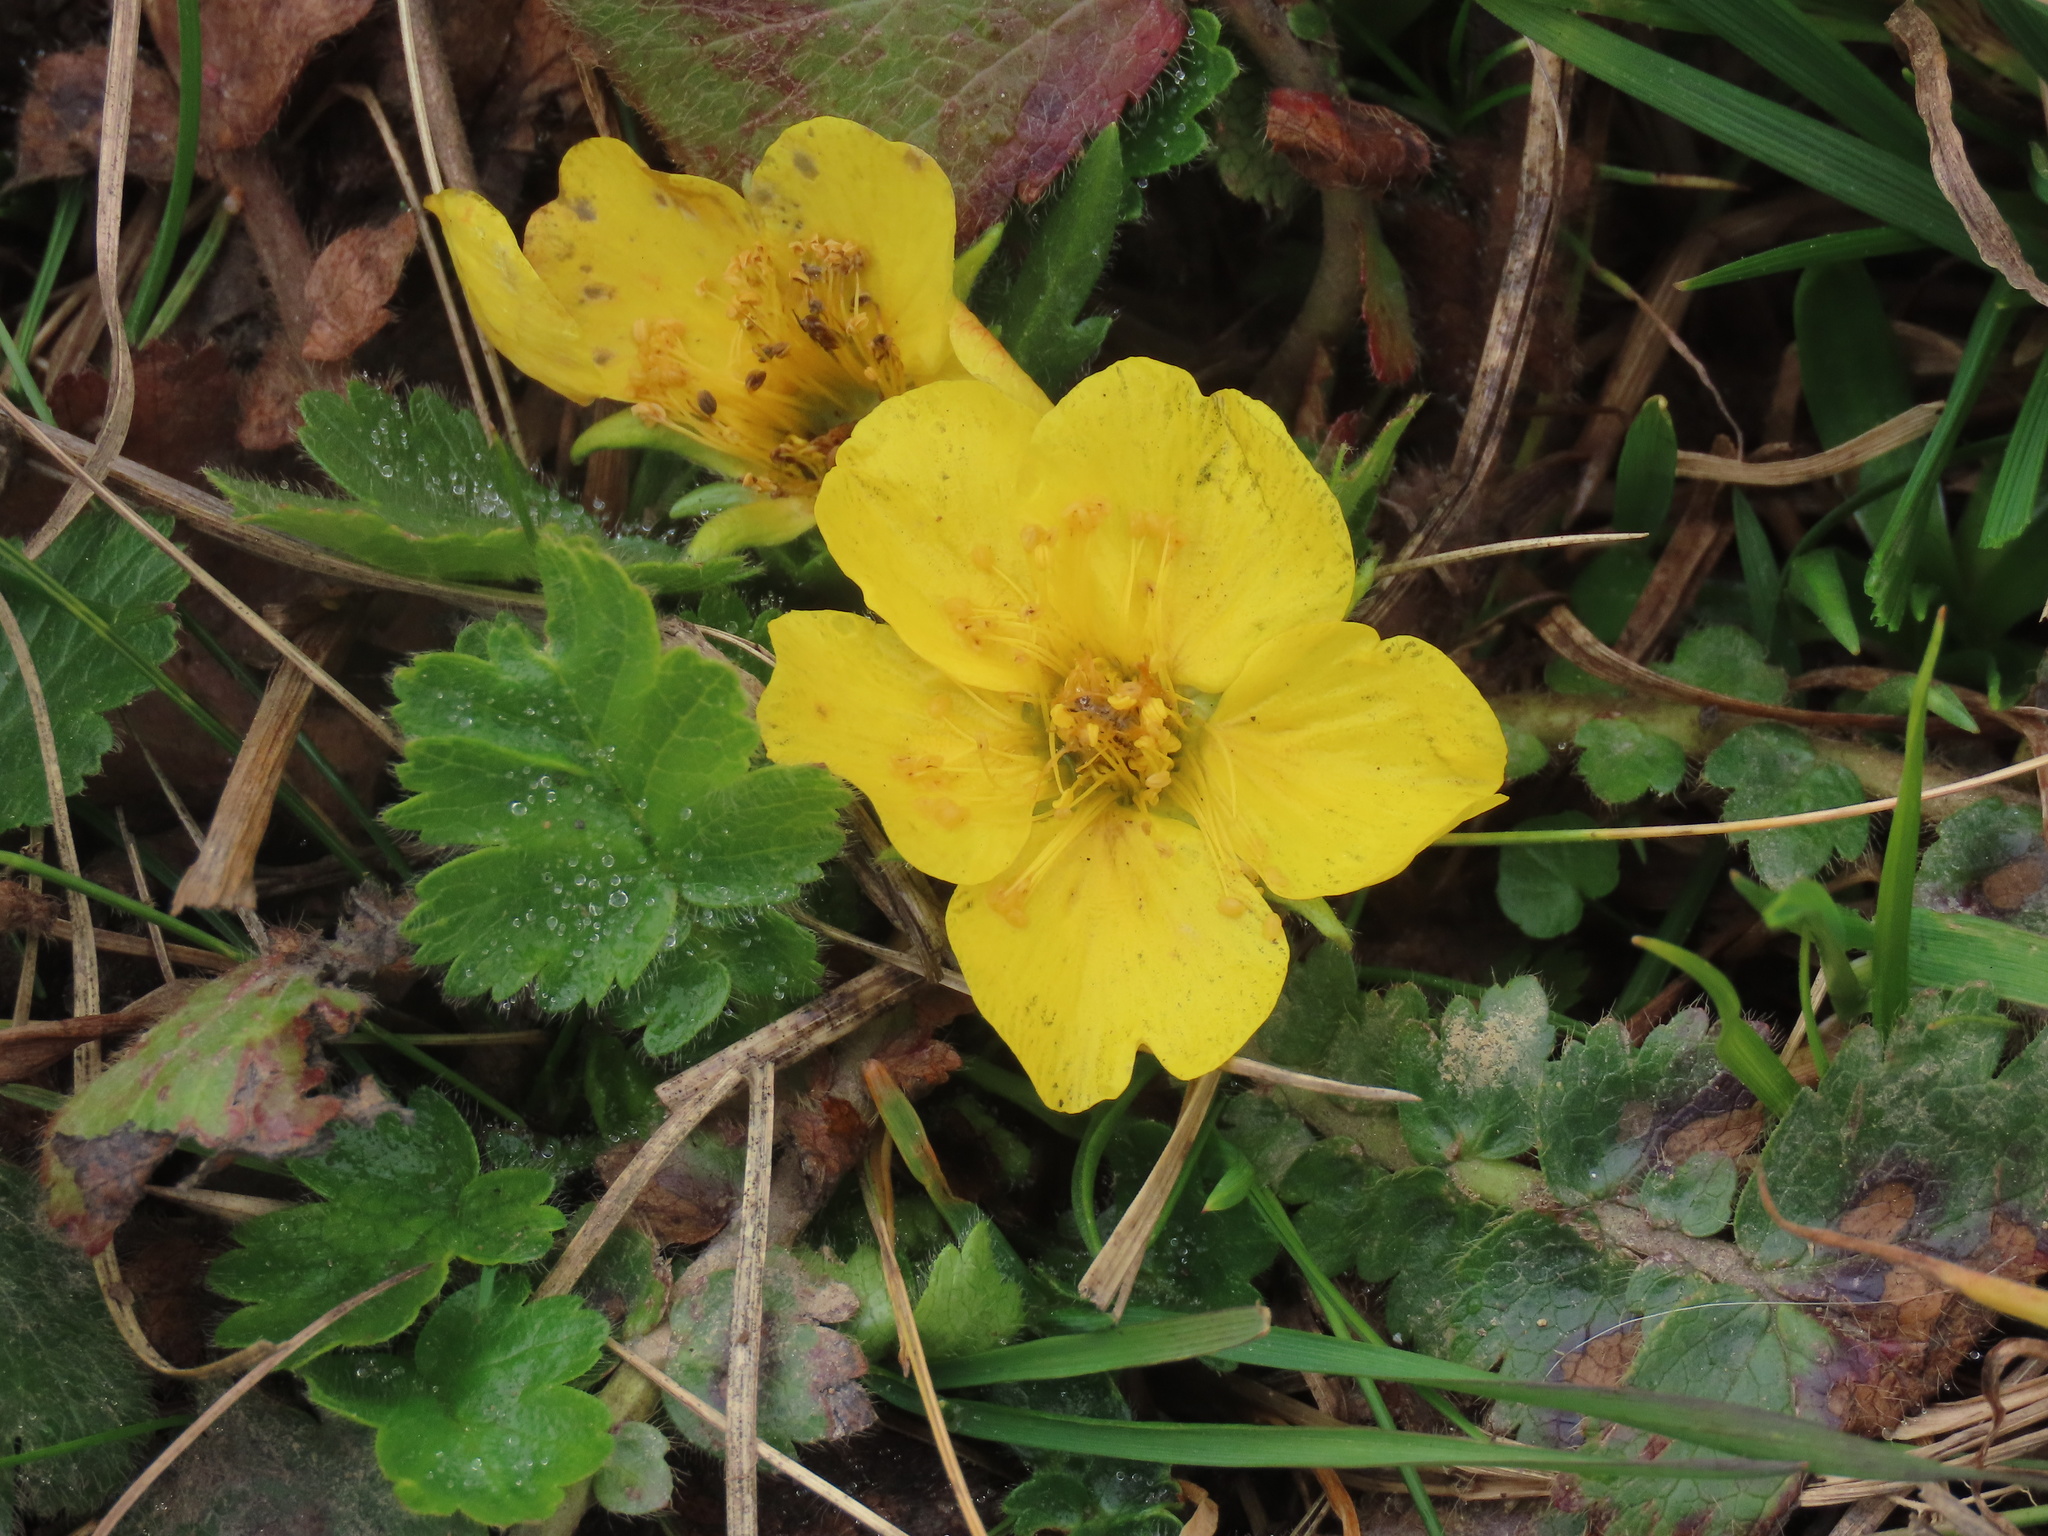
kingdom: Plantae
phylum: Tracheophyta
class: Magnoliopsida
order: Rosales
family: Rosaceae
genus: Geum
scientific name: Geum montanum
